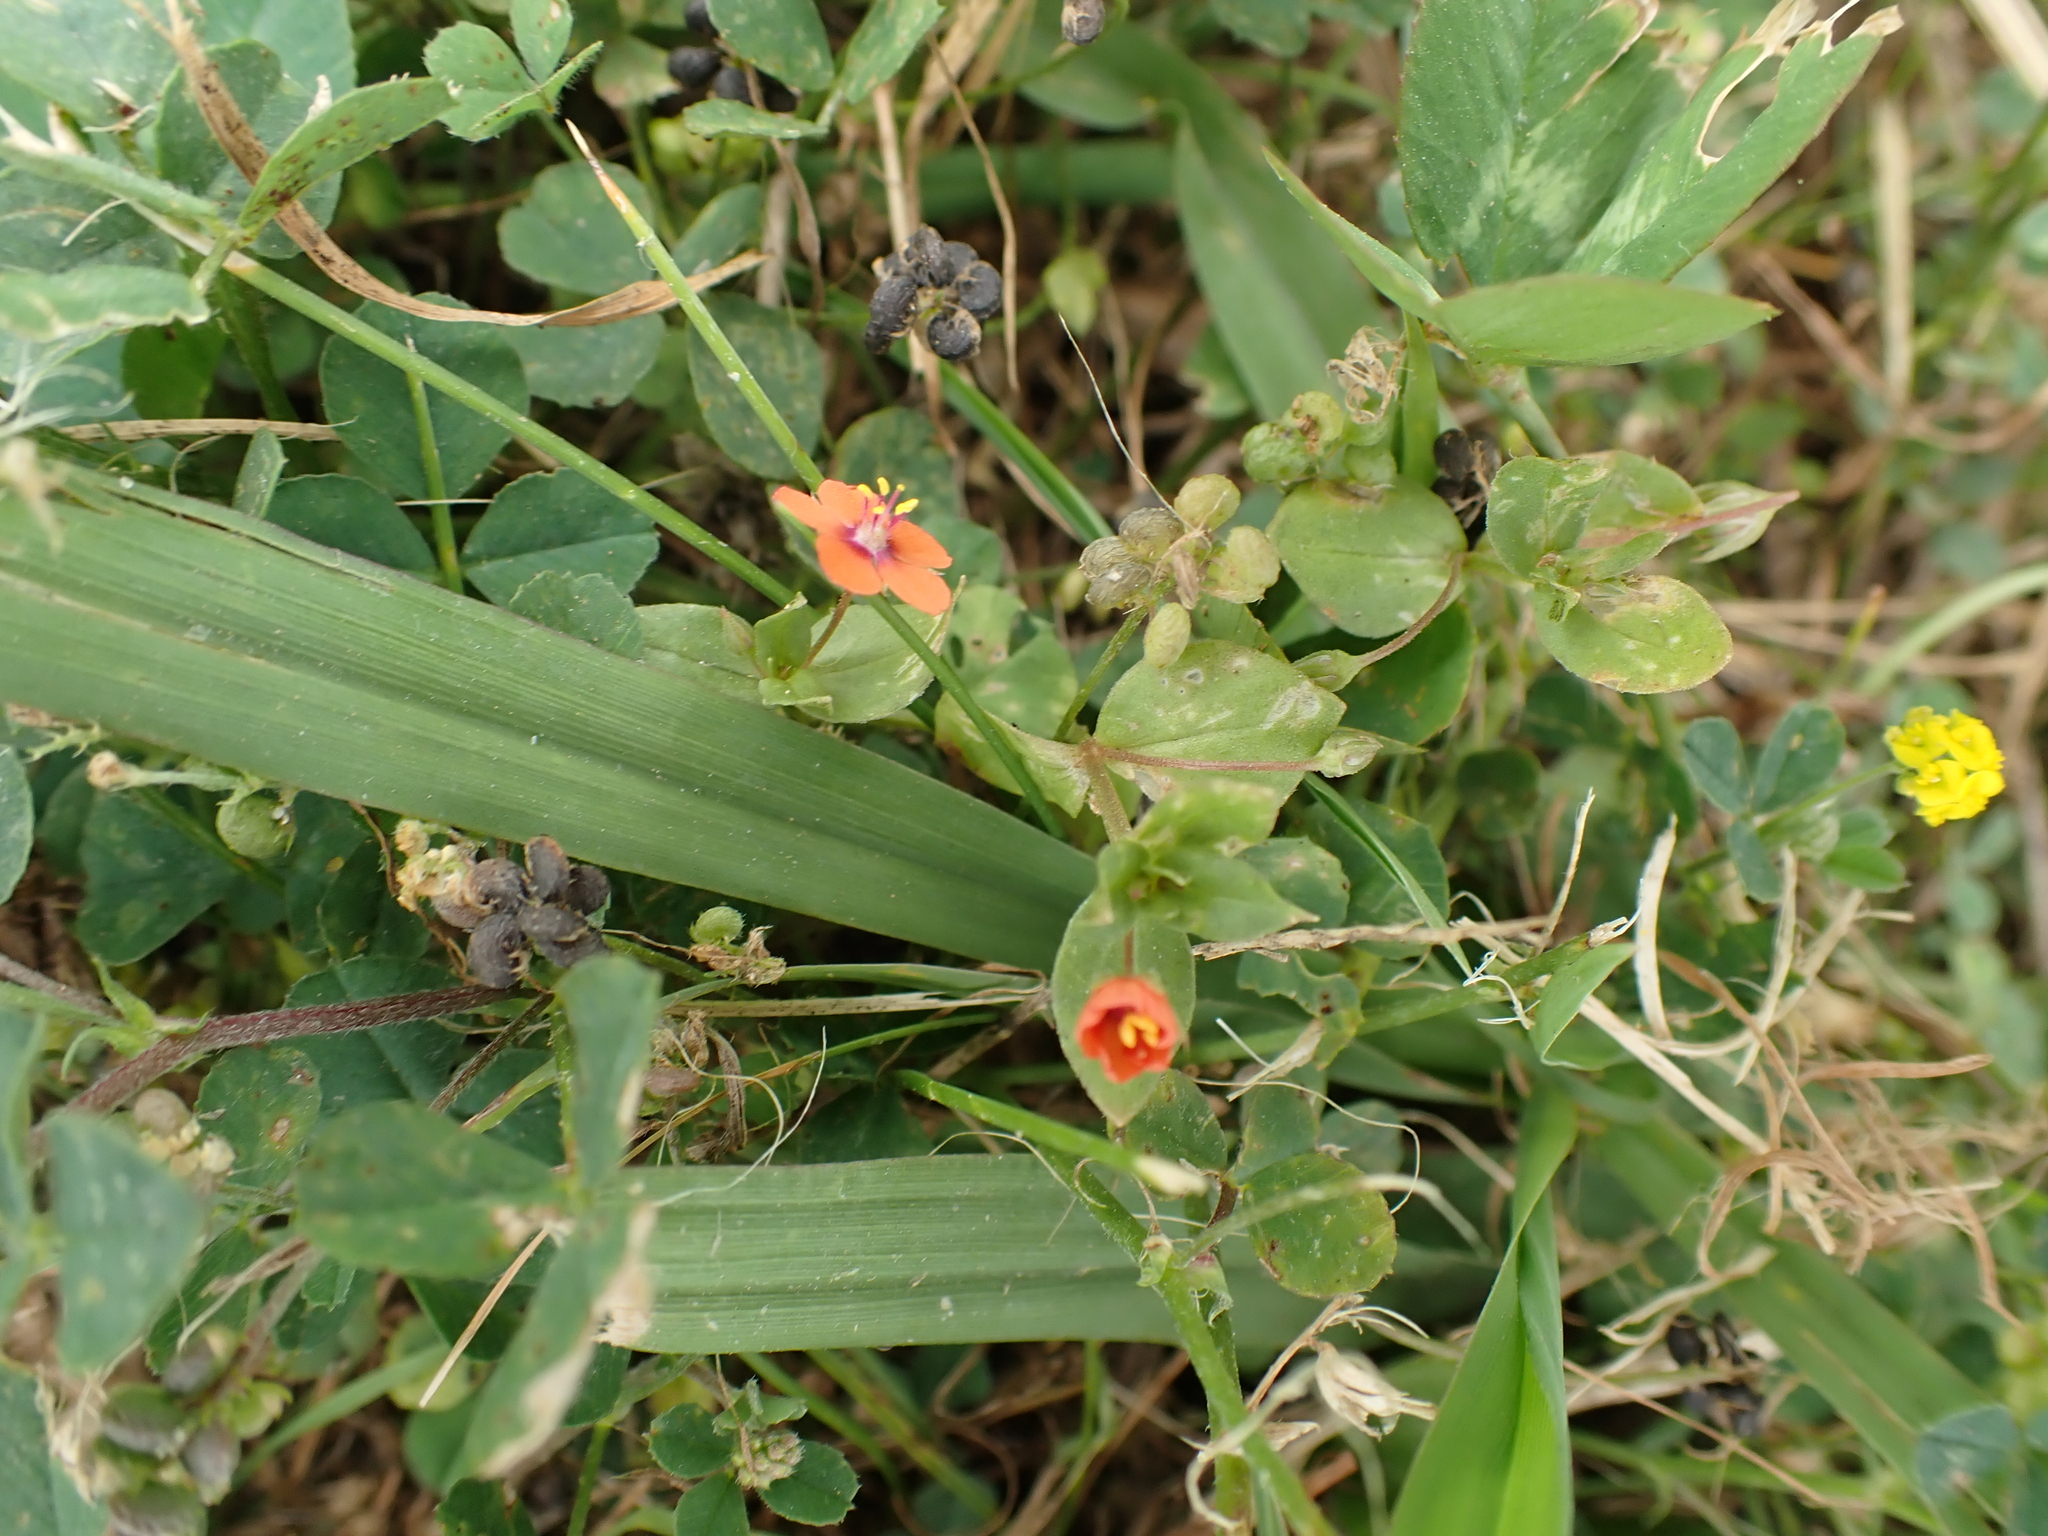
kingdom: Plantae
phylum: Tracheophyta
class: Magnoliopsida
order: Ericales
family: Primulaceae
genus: Lysimachia
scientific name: Lysimachia arvensis
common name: Scarlet pimpernel
